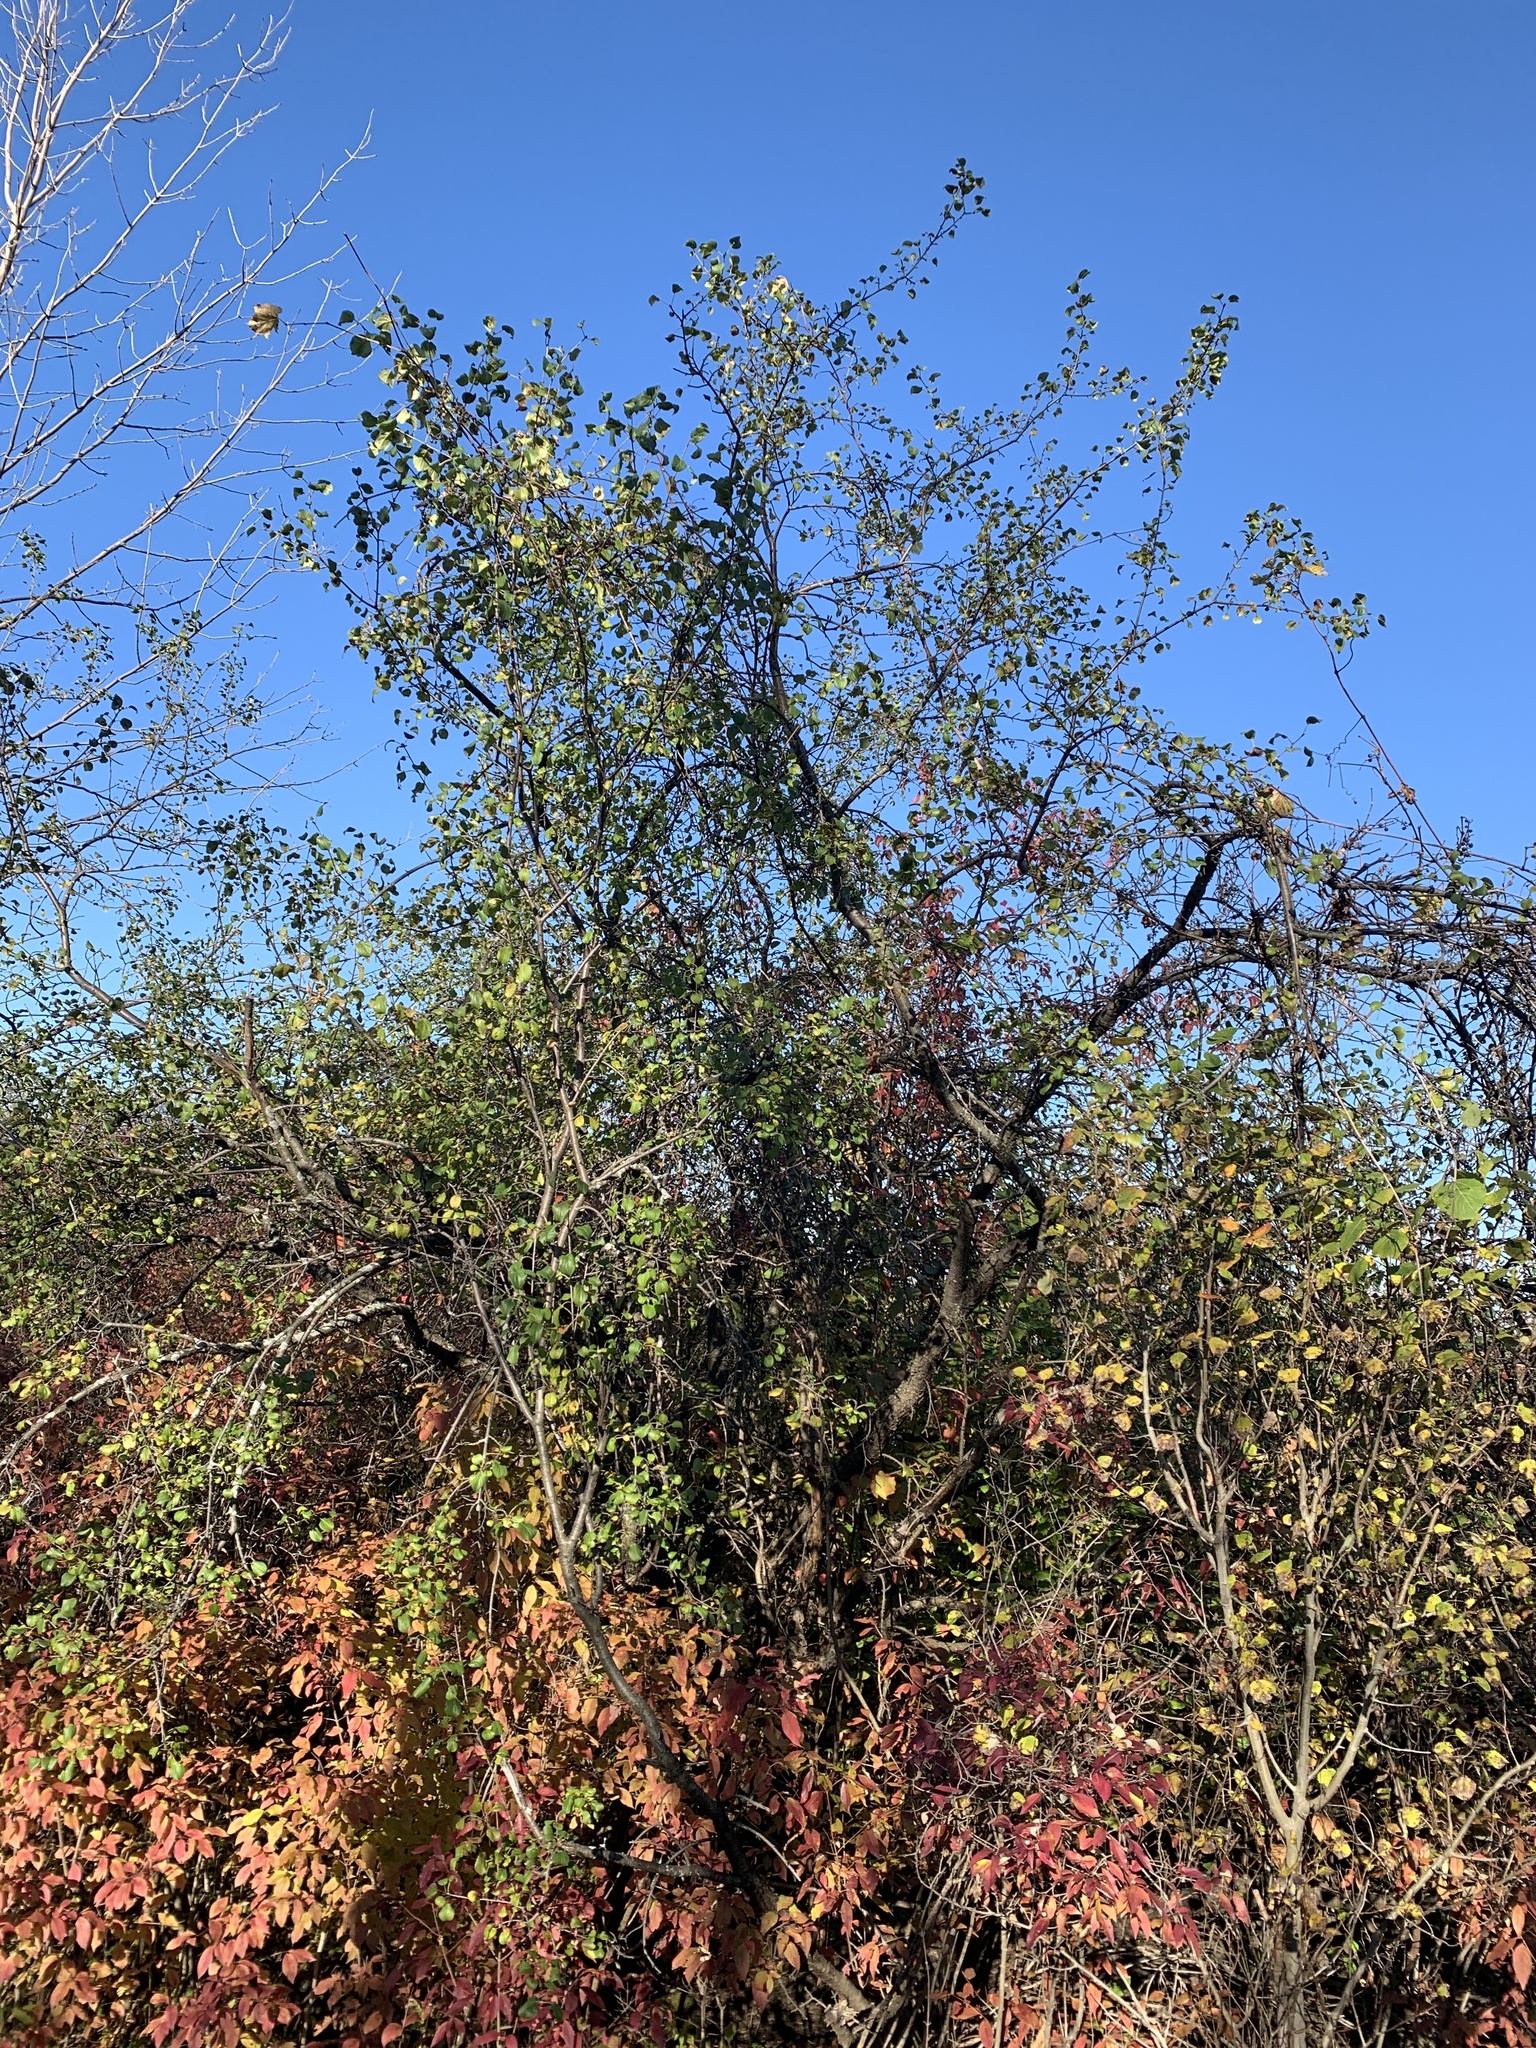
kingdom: Plantae
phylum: Tracheophyta
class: Magnoliopsida
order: Rosales
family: Rhamnaceae
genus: Rhamnus
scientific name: Rhamnus cathartica
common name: Common buckthorn
